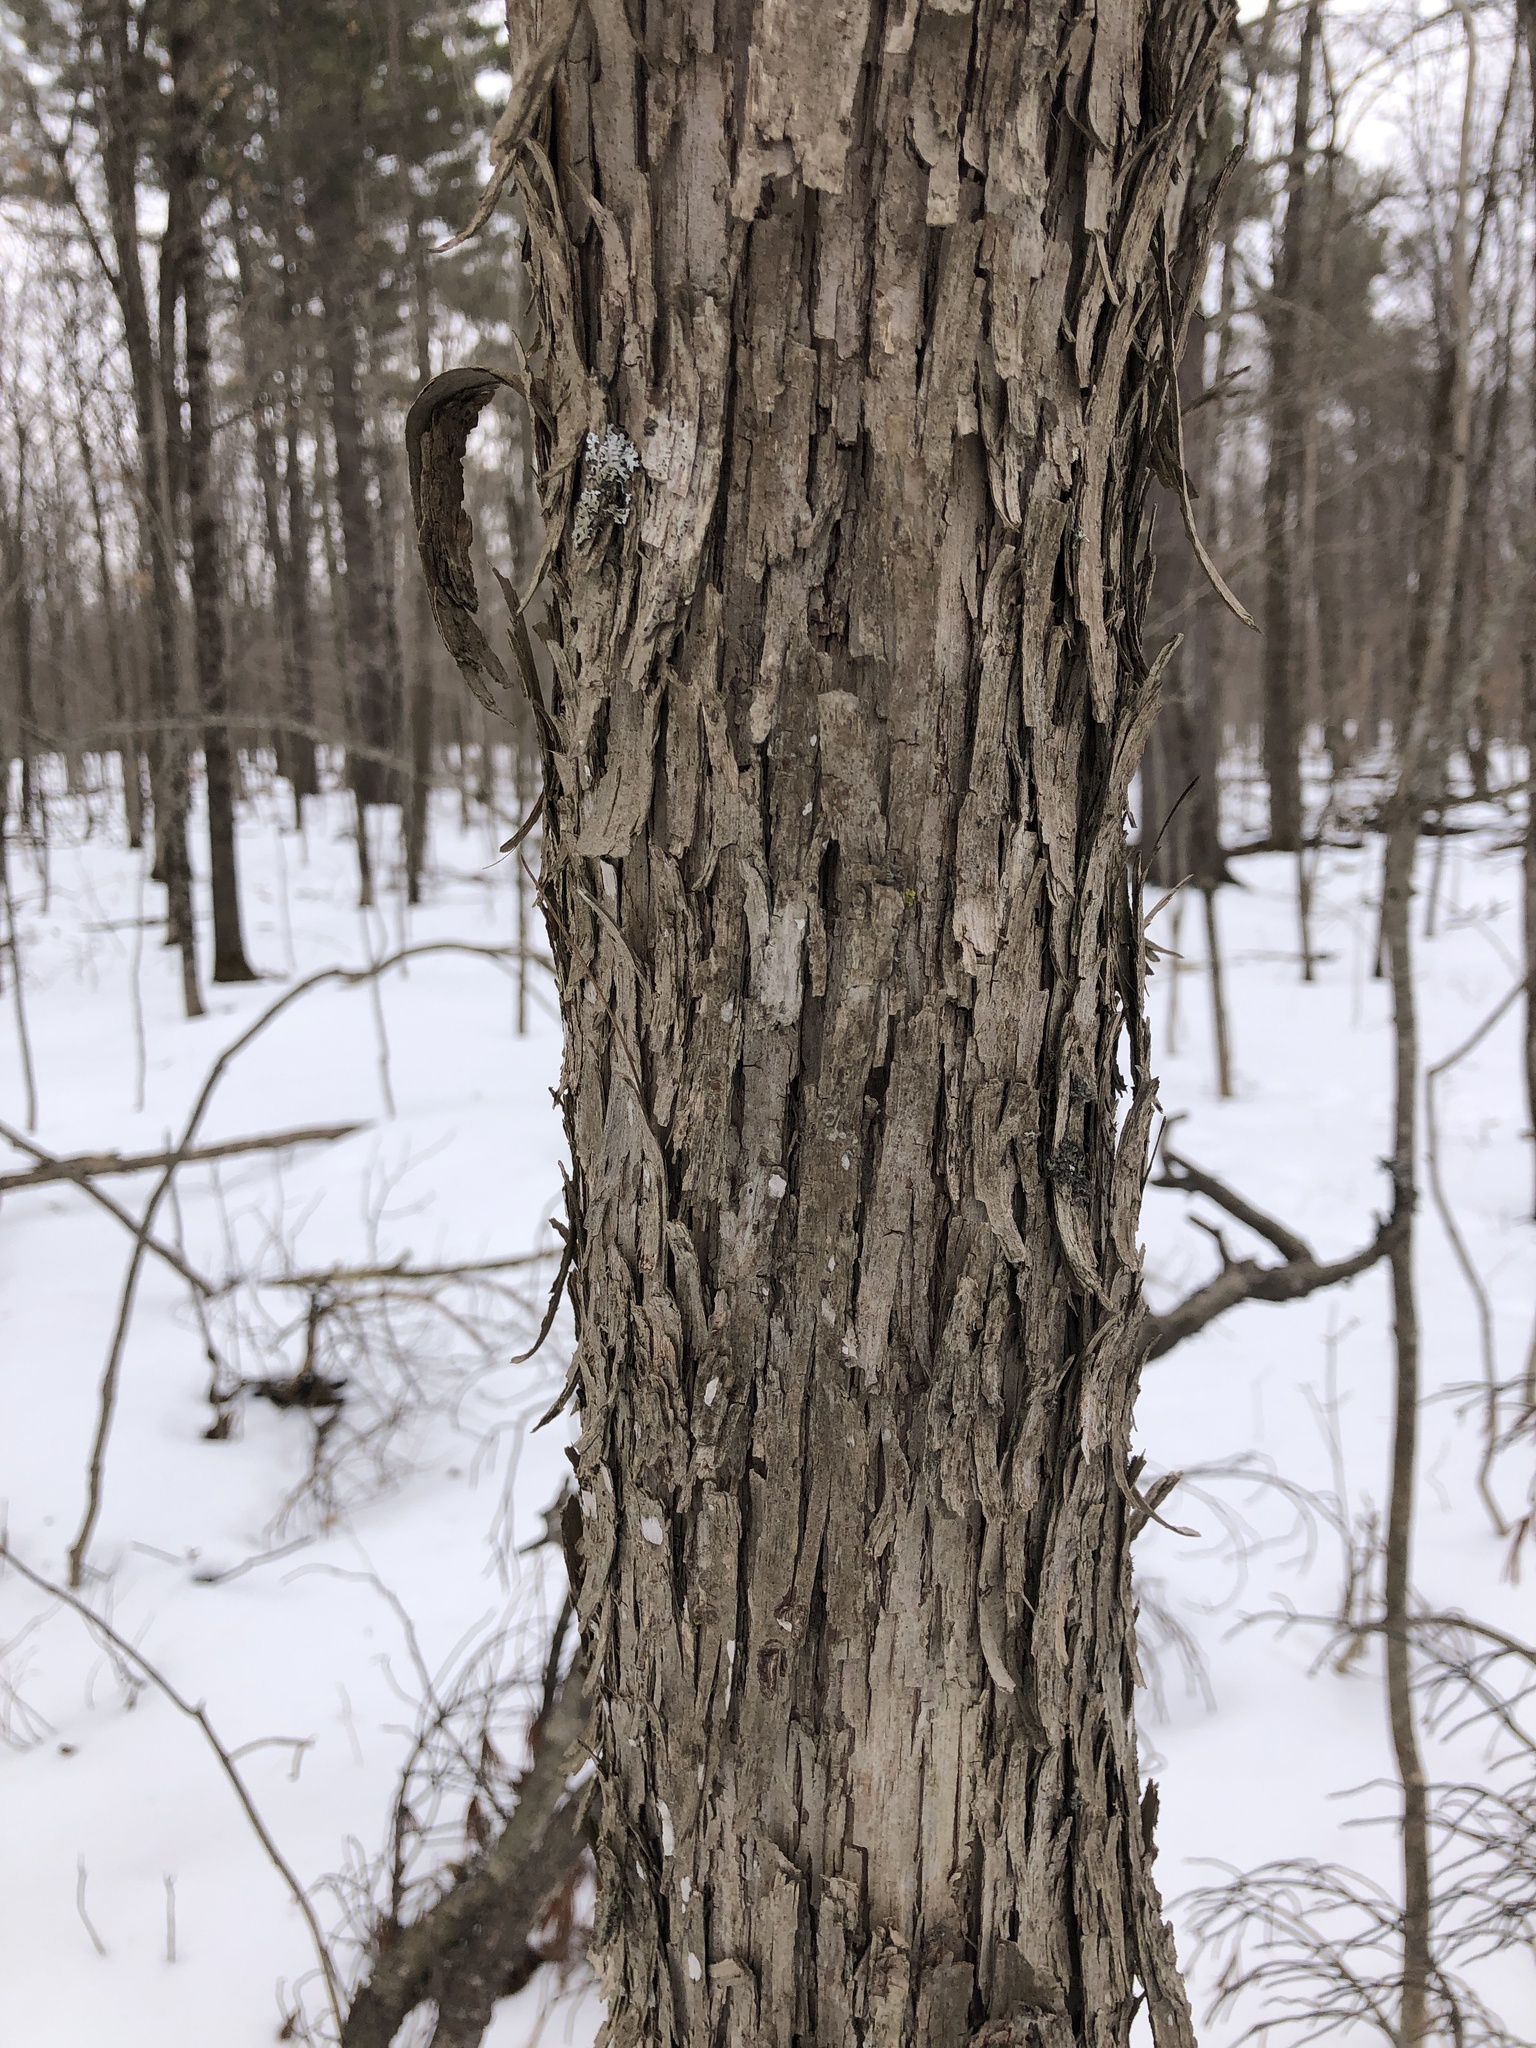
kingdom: Plantae
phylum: Tracheophyta
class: Magnoliopsida
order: Fagales
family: Betulaceae
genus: Ostrya
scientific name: Ostrya virginiana
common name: Ironwood
